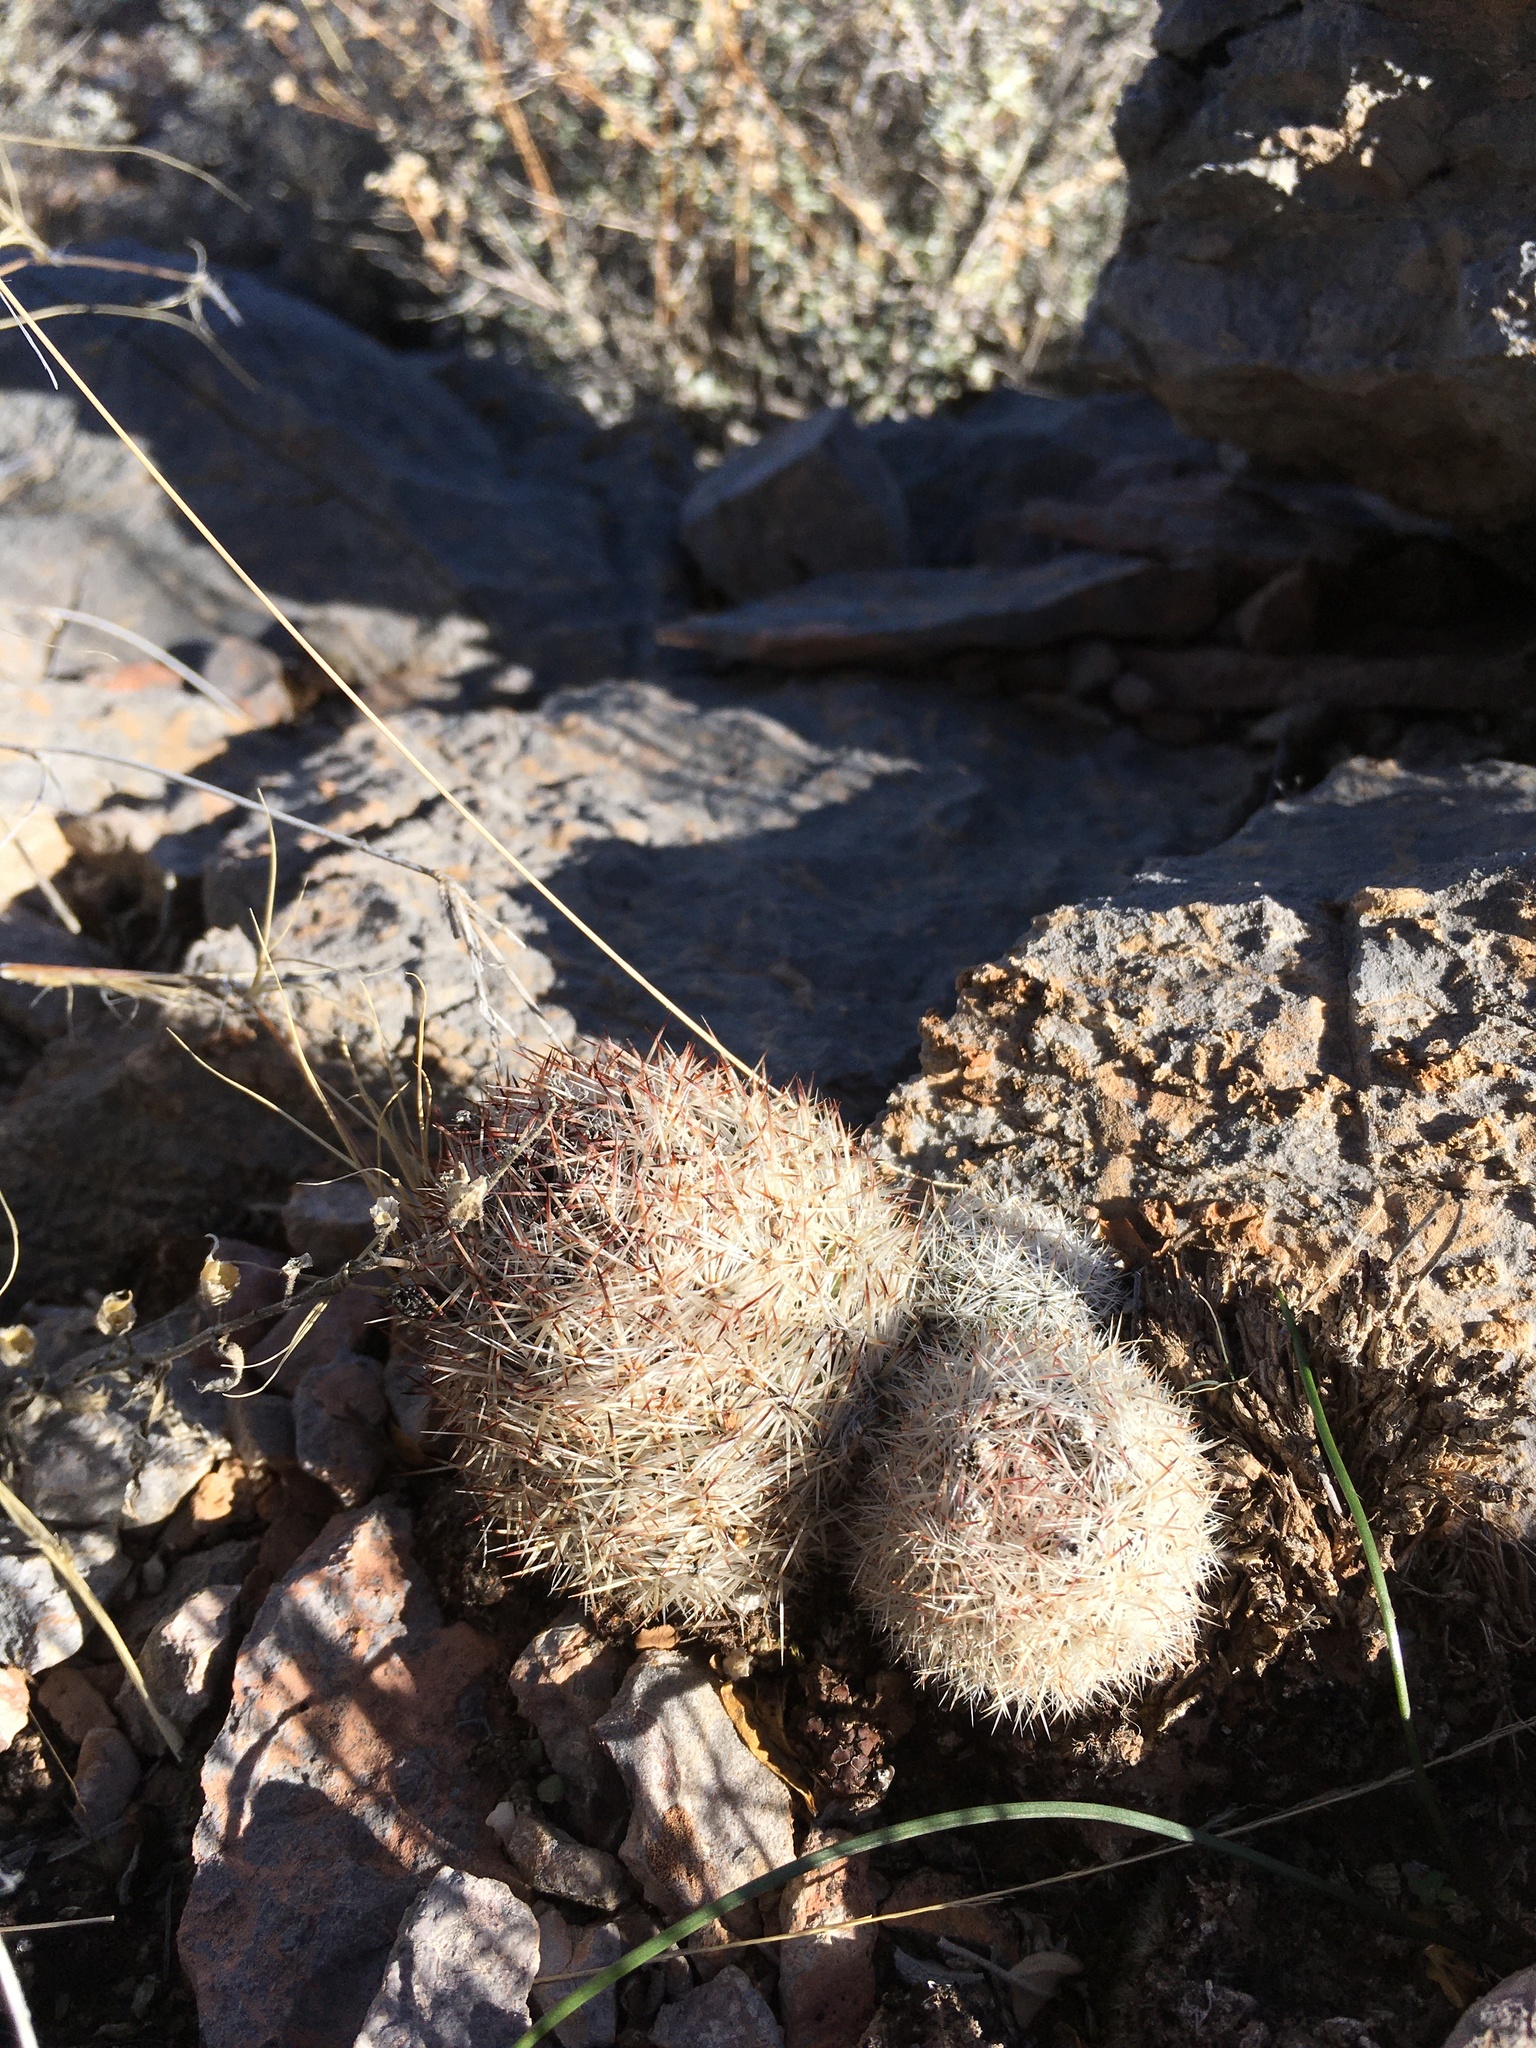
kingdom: Plantae
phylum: Tracheophyta
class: Magnoliopsida
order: Caryophyllales
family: Cactaceae
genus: Pelecyphora
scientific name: Pelecyphora sneedii
